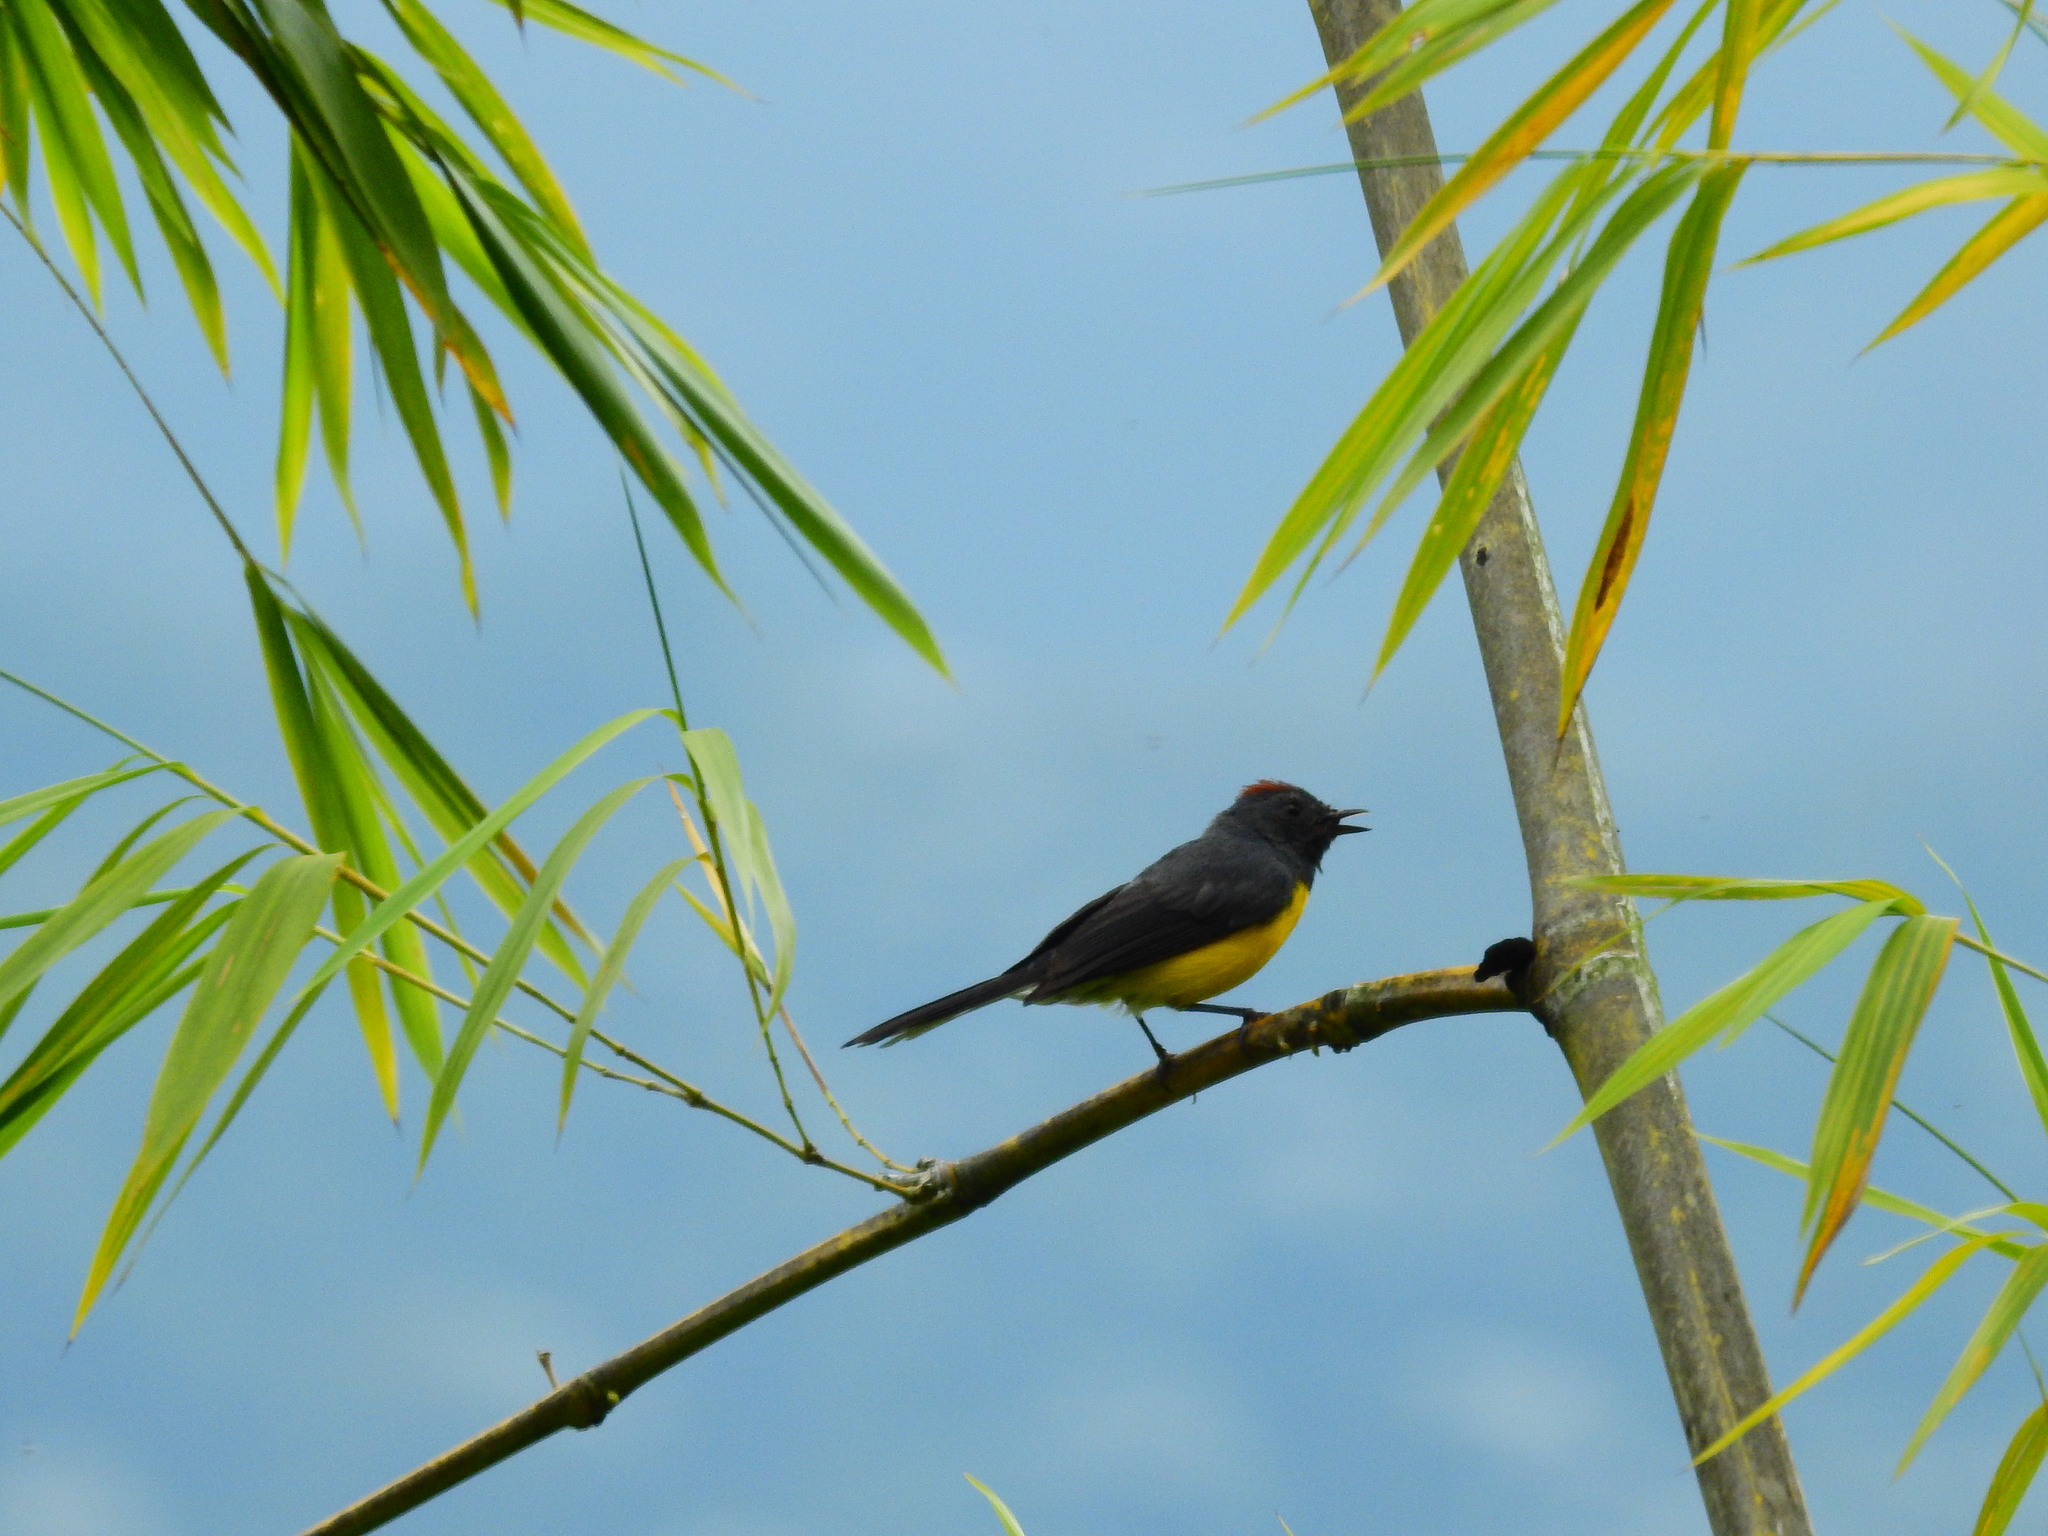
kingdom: Animalia
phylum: Chordata
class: Aves
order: Passeriformes
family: Parulidae
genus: Myioborus
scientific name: Myioborus miniatus
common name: Slate-throated redstart
